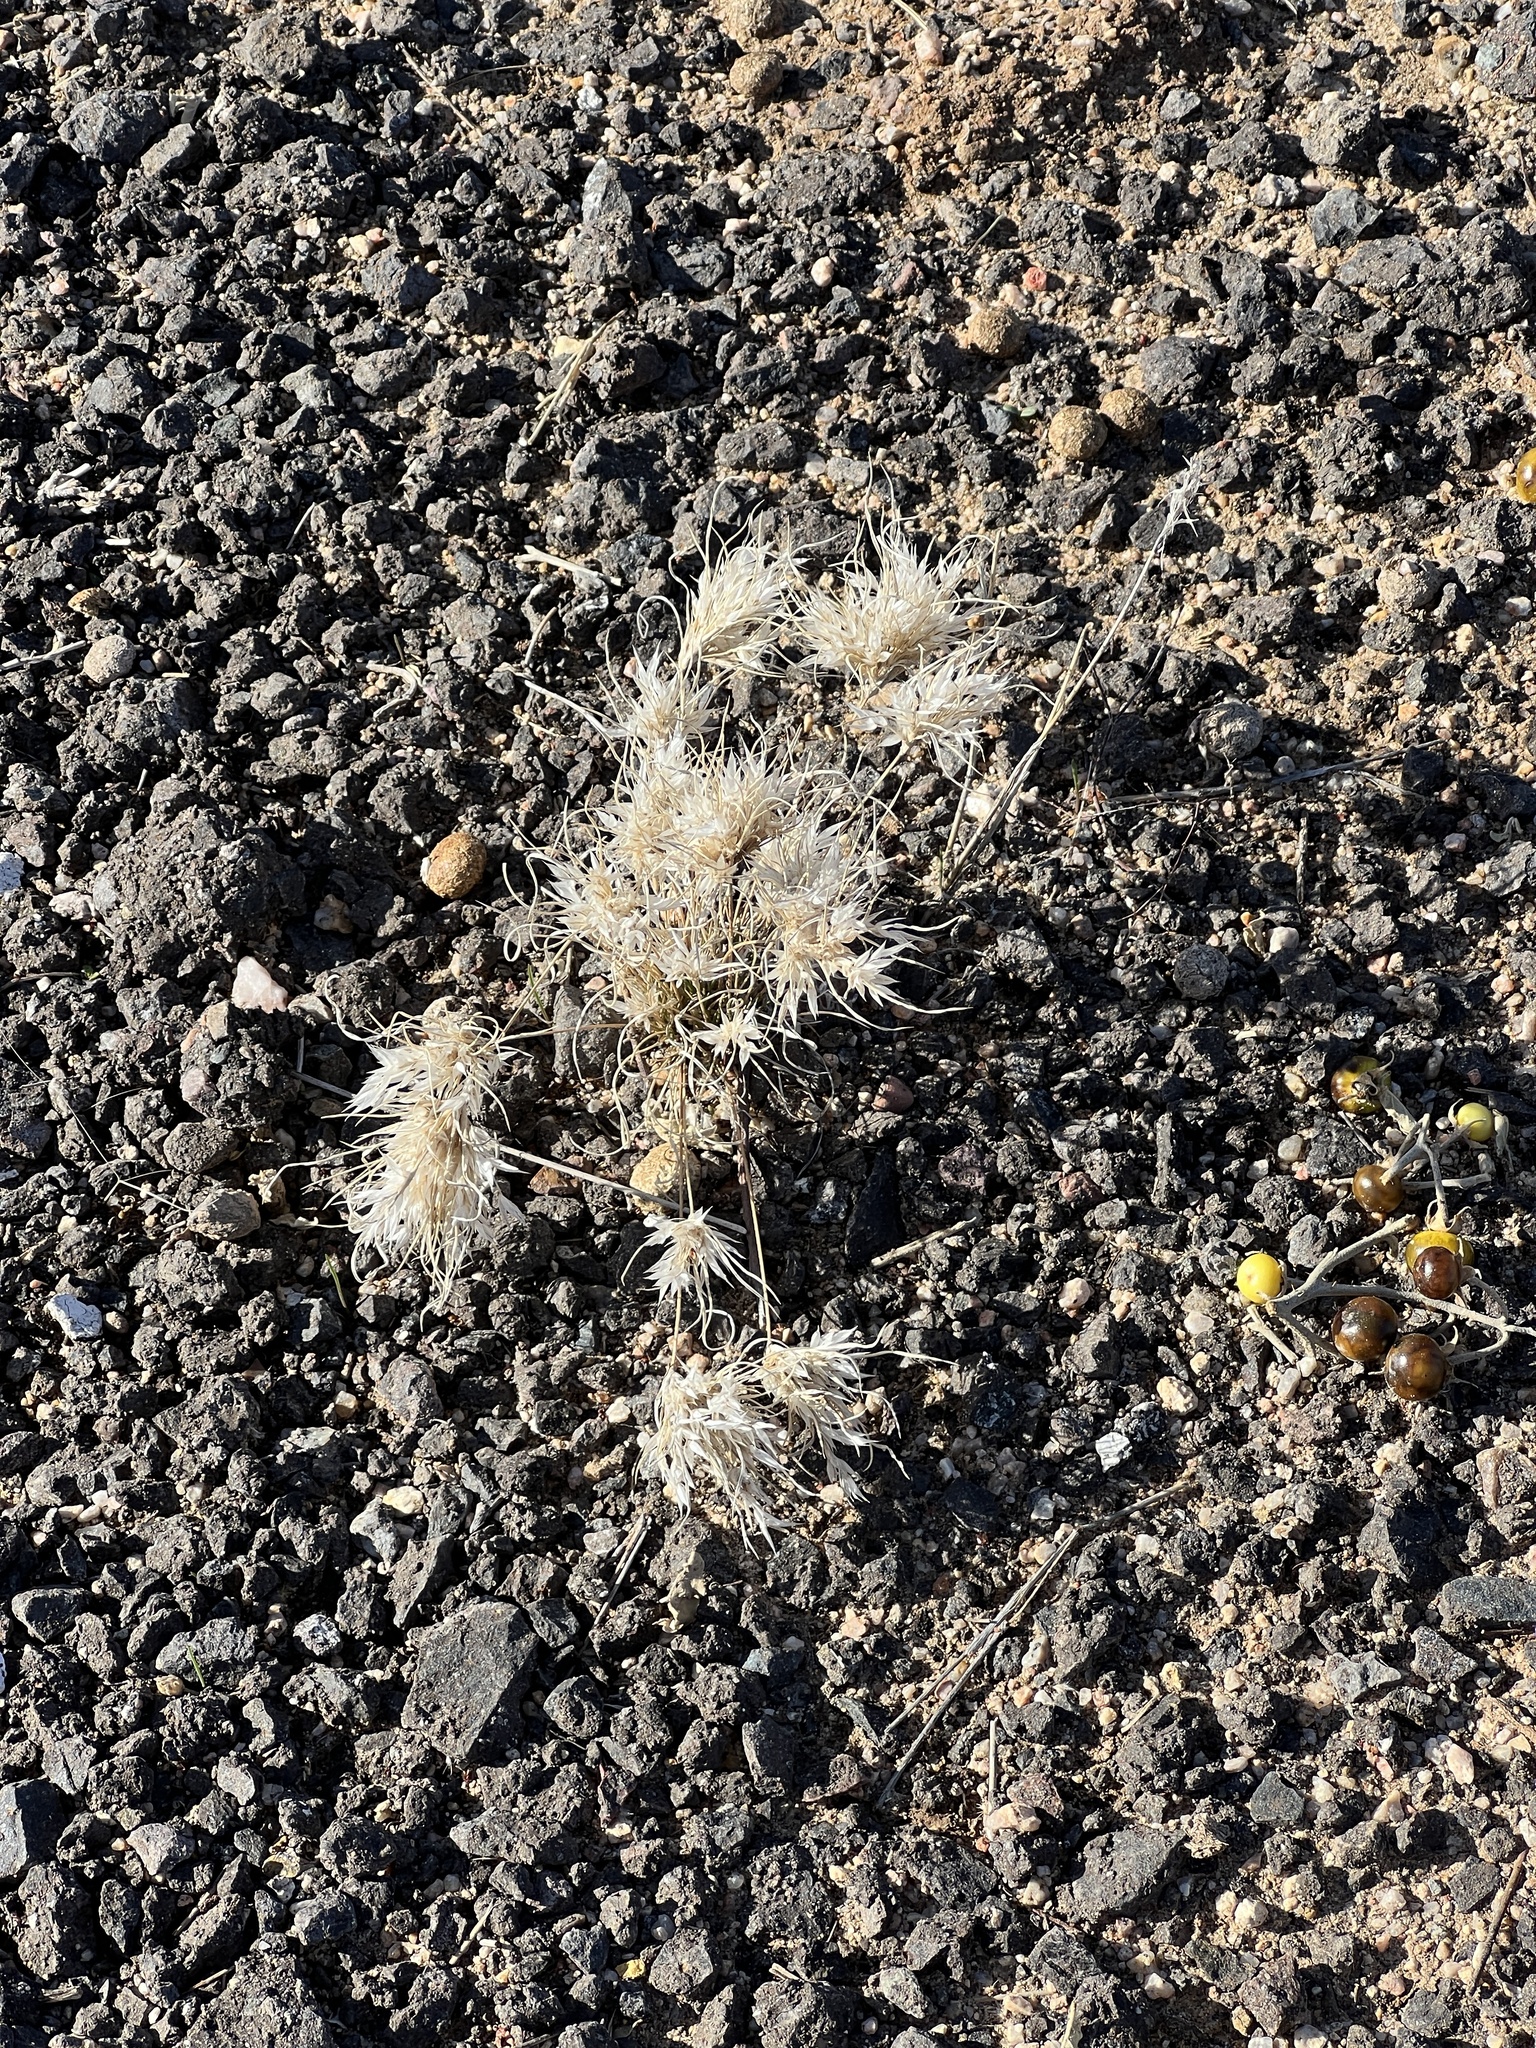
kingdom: Plantae
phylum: Tracheophyta
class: Liliopsida
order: Poales
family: Poaceae
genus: Dasyochloa
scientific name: Dasyochloa pulchella
